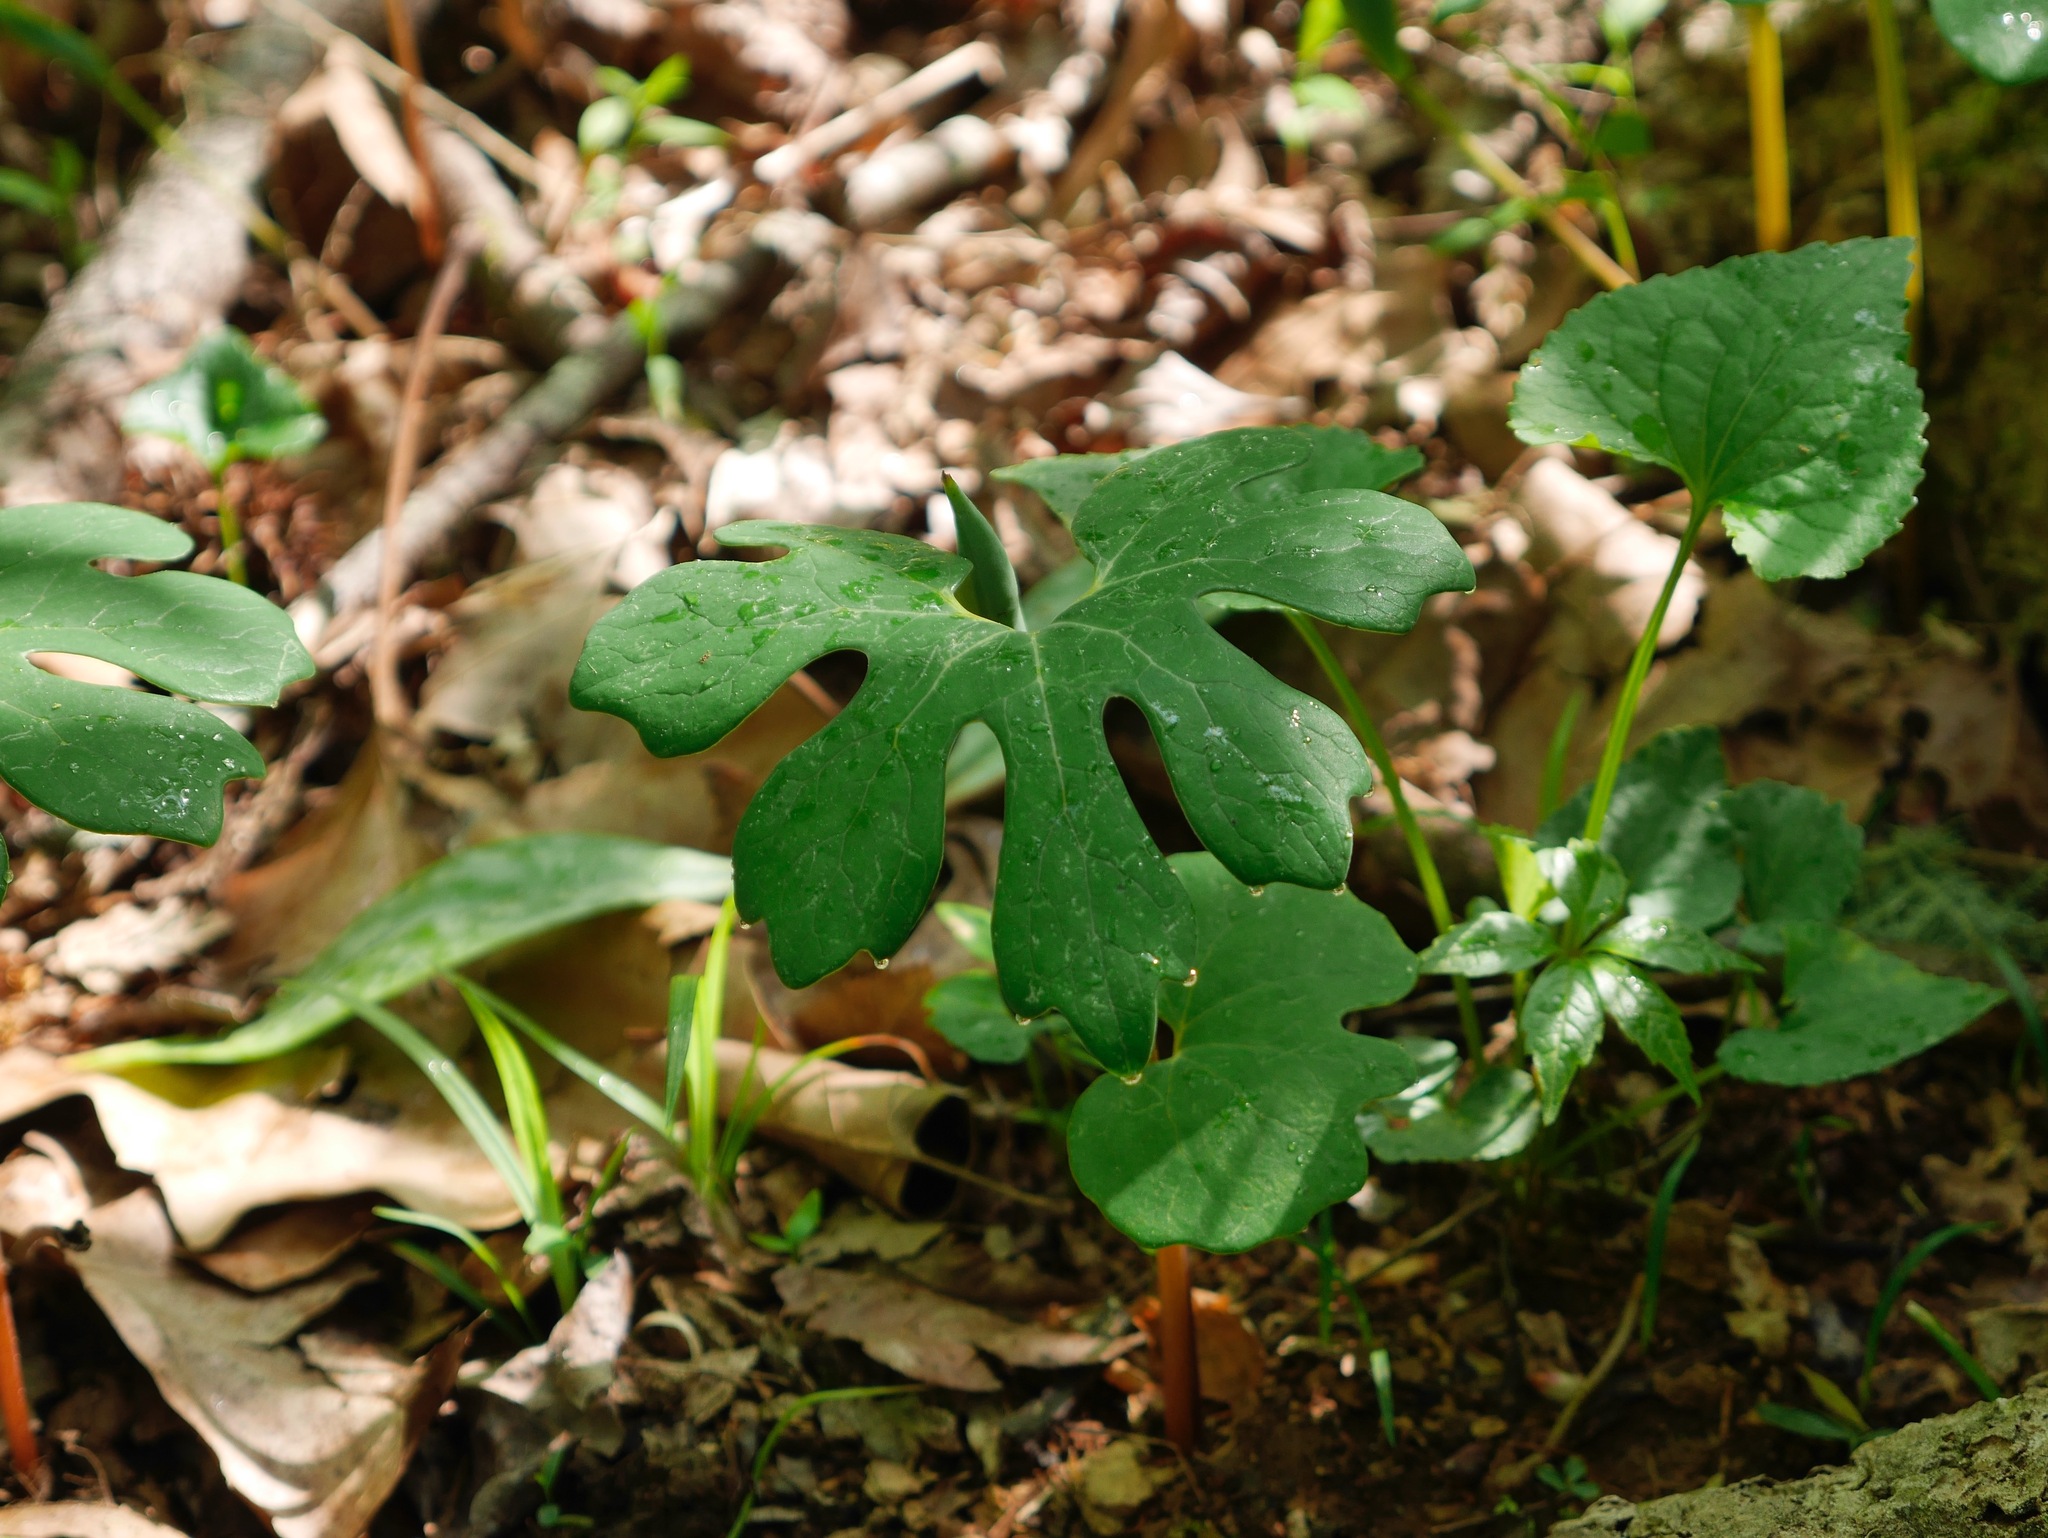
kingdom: Plantae
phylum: Tracheophyta
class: Magnoliopsida
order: Ranunculales
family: Papaveraceae
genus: Sanguinaria
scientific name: Sanguinaria canadensis
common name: Bloodroot
